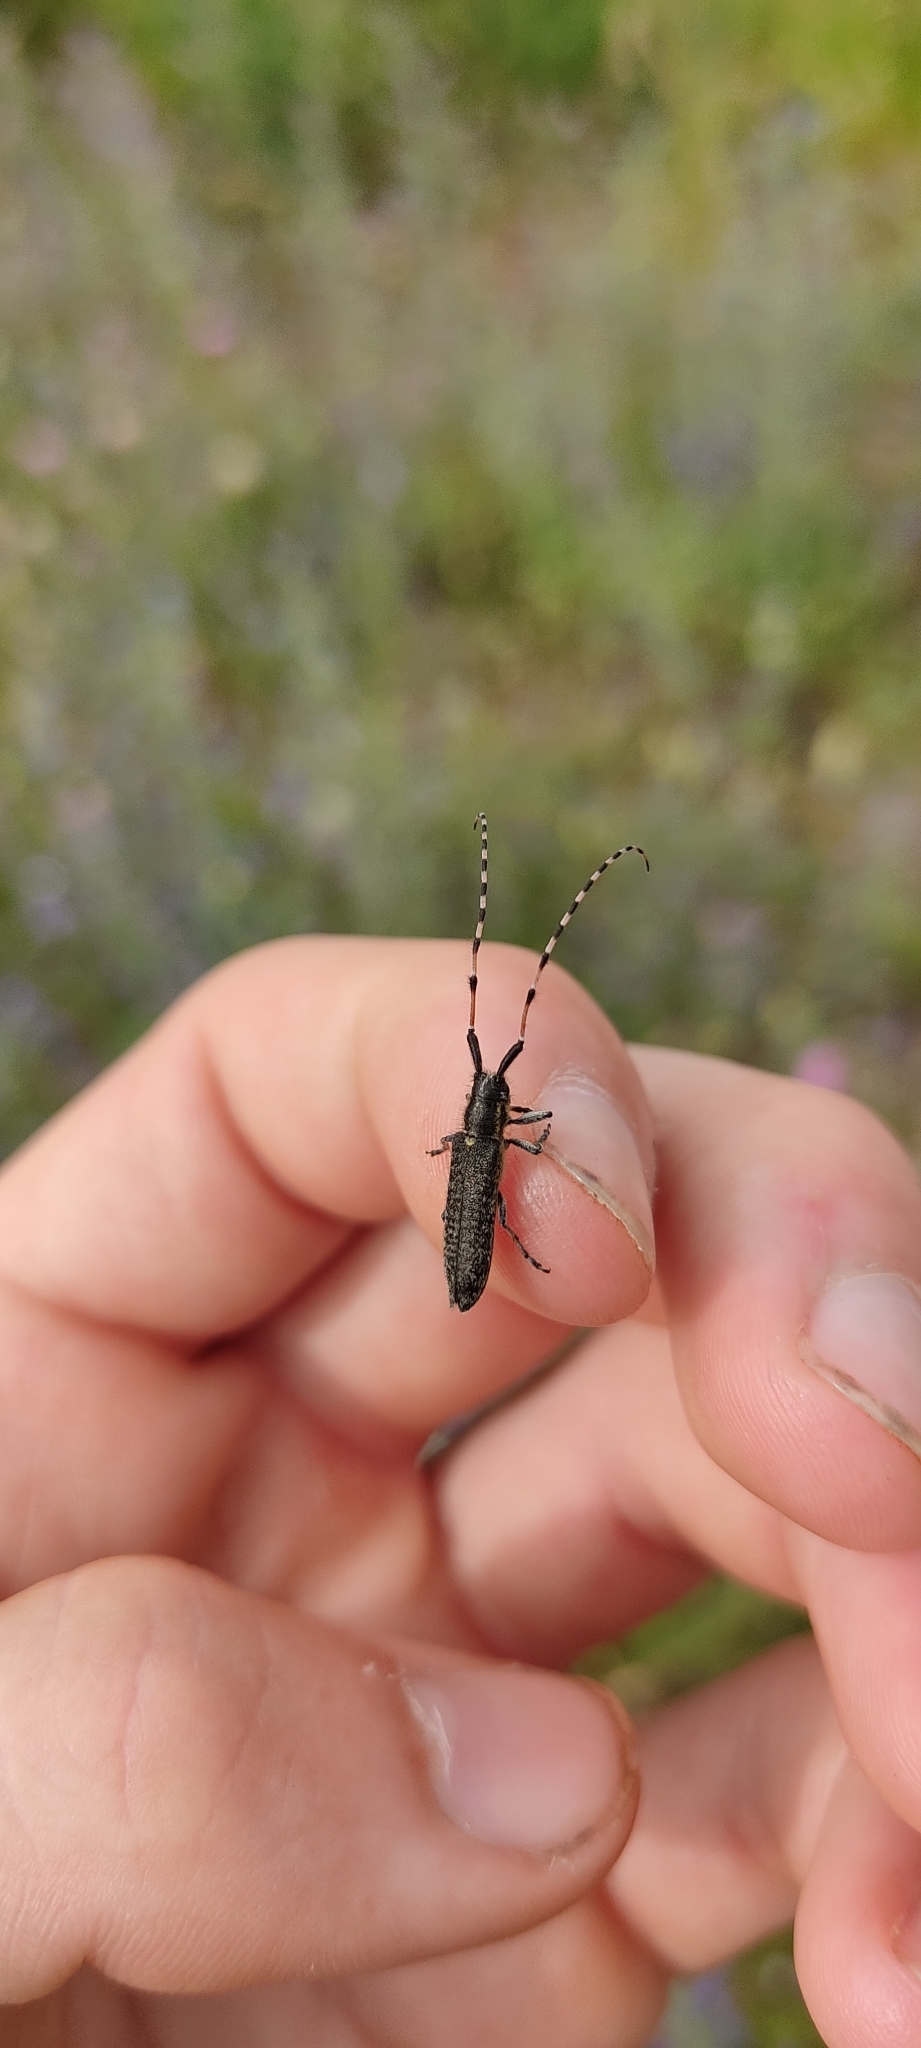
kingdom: Animalia
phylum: Arthropoda
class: Insecta
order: Coleoptera
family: Cerambycidae
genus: Agapanthia
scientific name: Agapanthia dahlii
